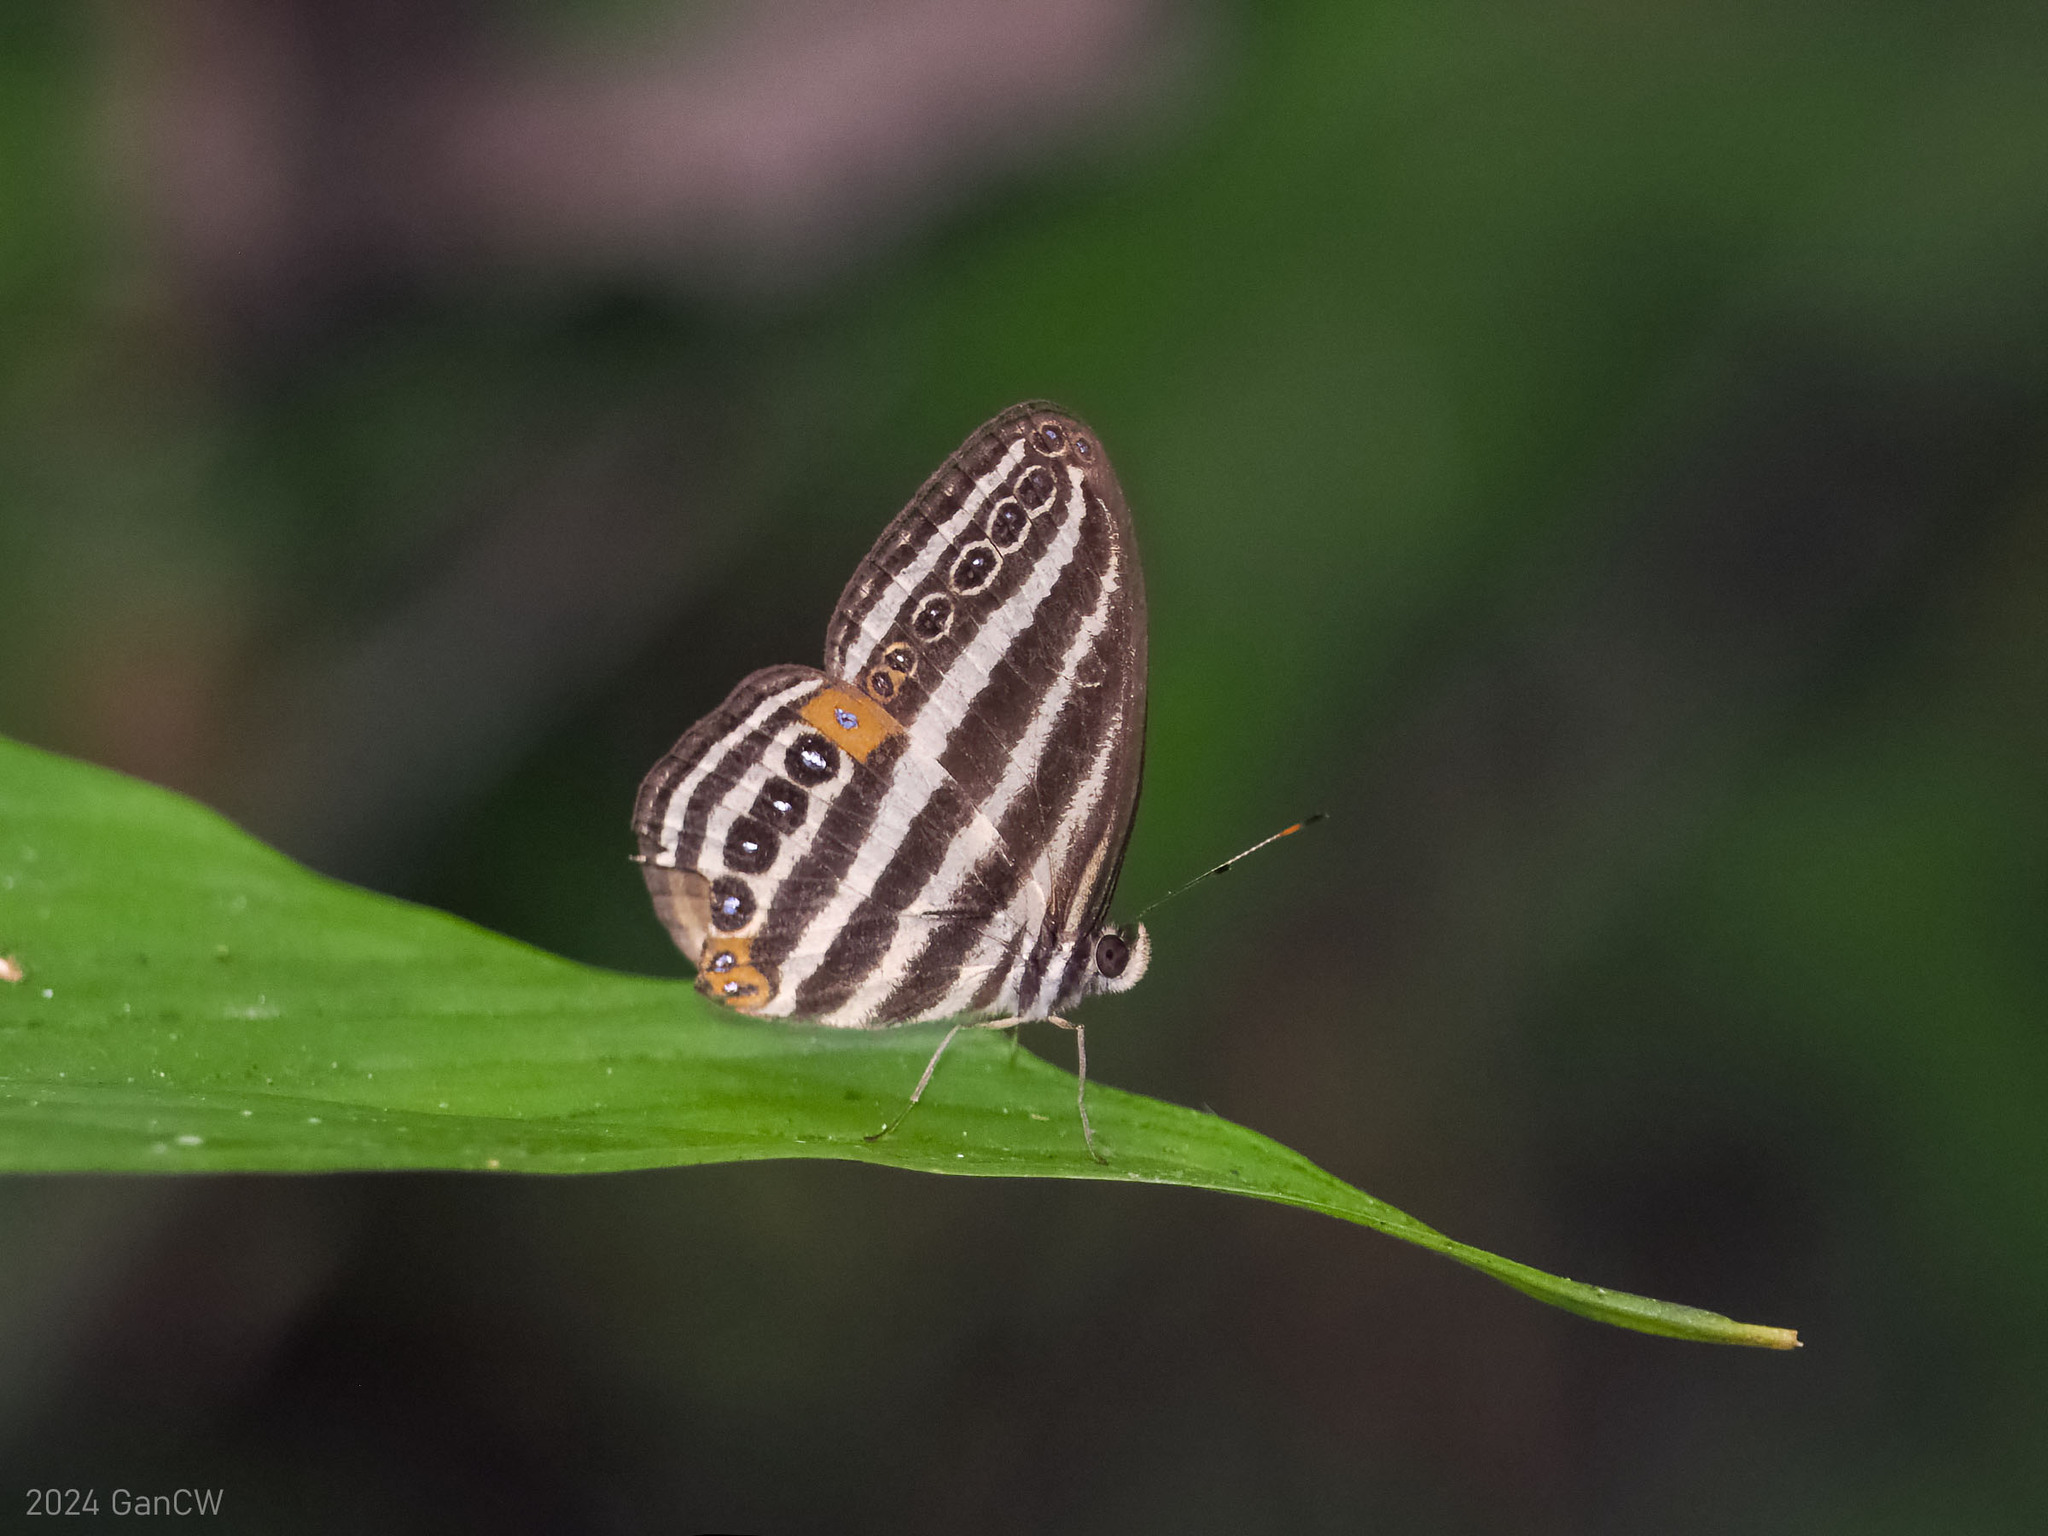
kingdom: Animalia
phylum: Arthropoda
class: Insecta
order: Lepidoptera
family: Nymphalidae
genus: Ragadia
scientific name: Ragadia luzonia
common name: Luzon striped ringlet
